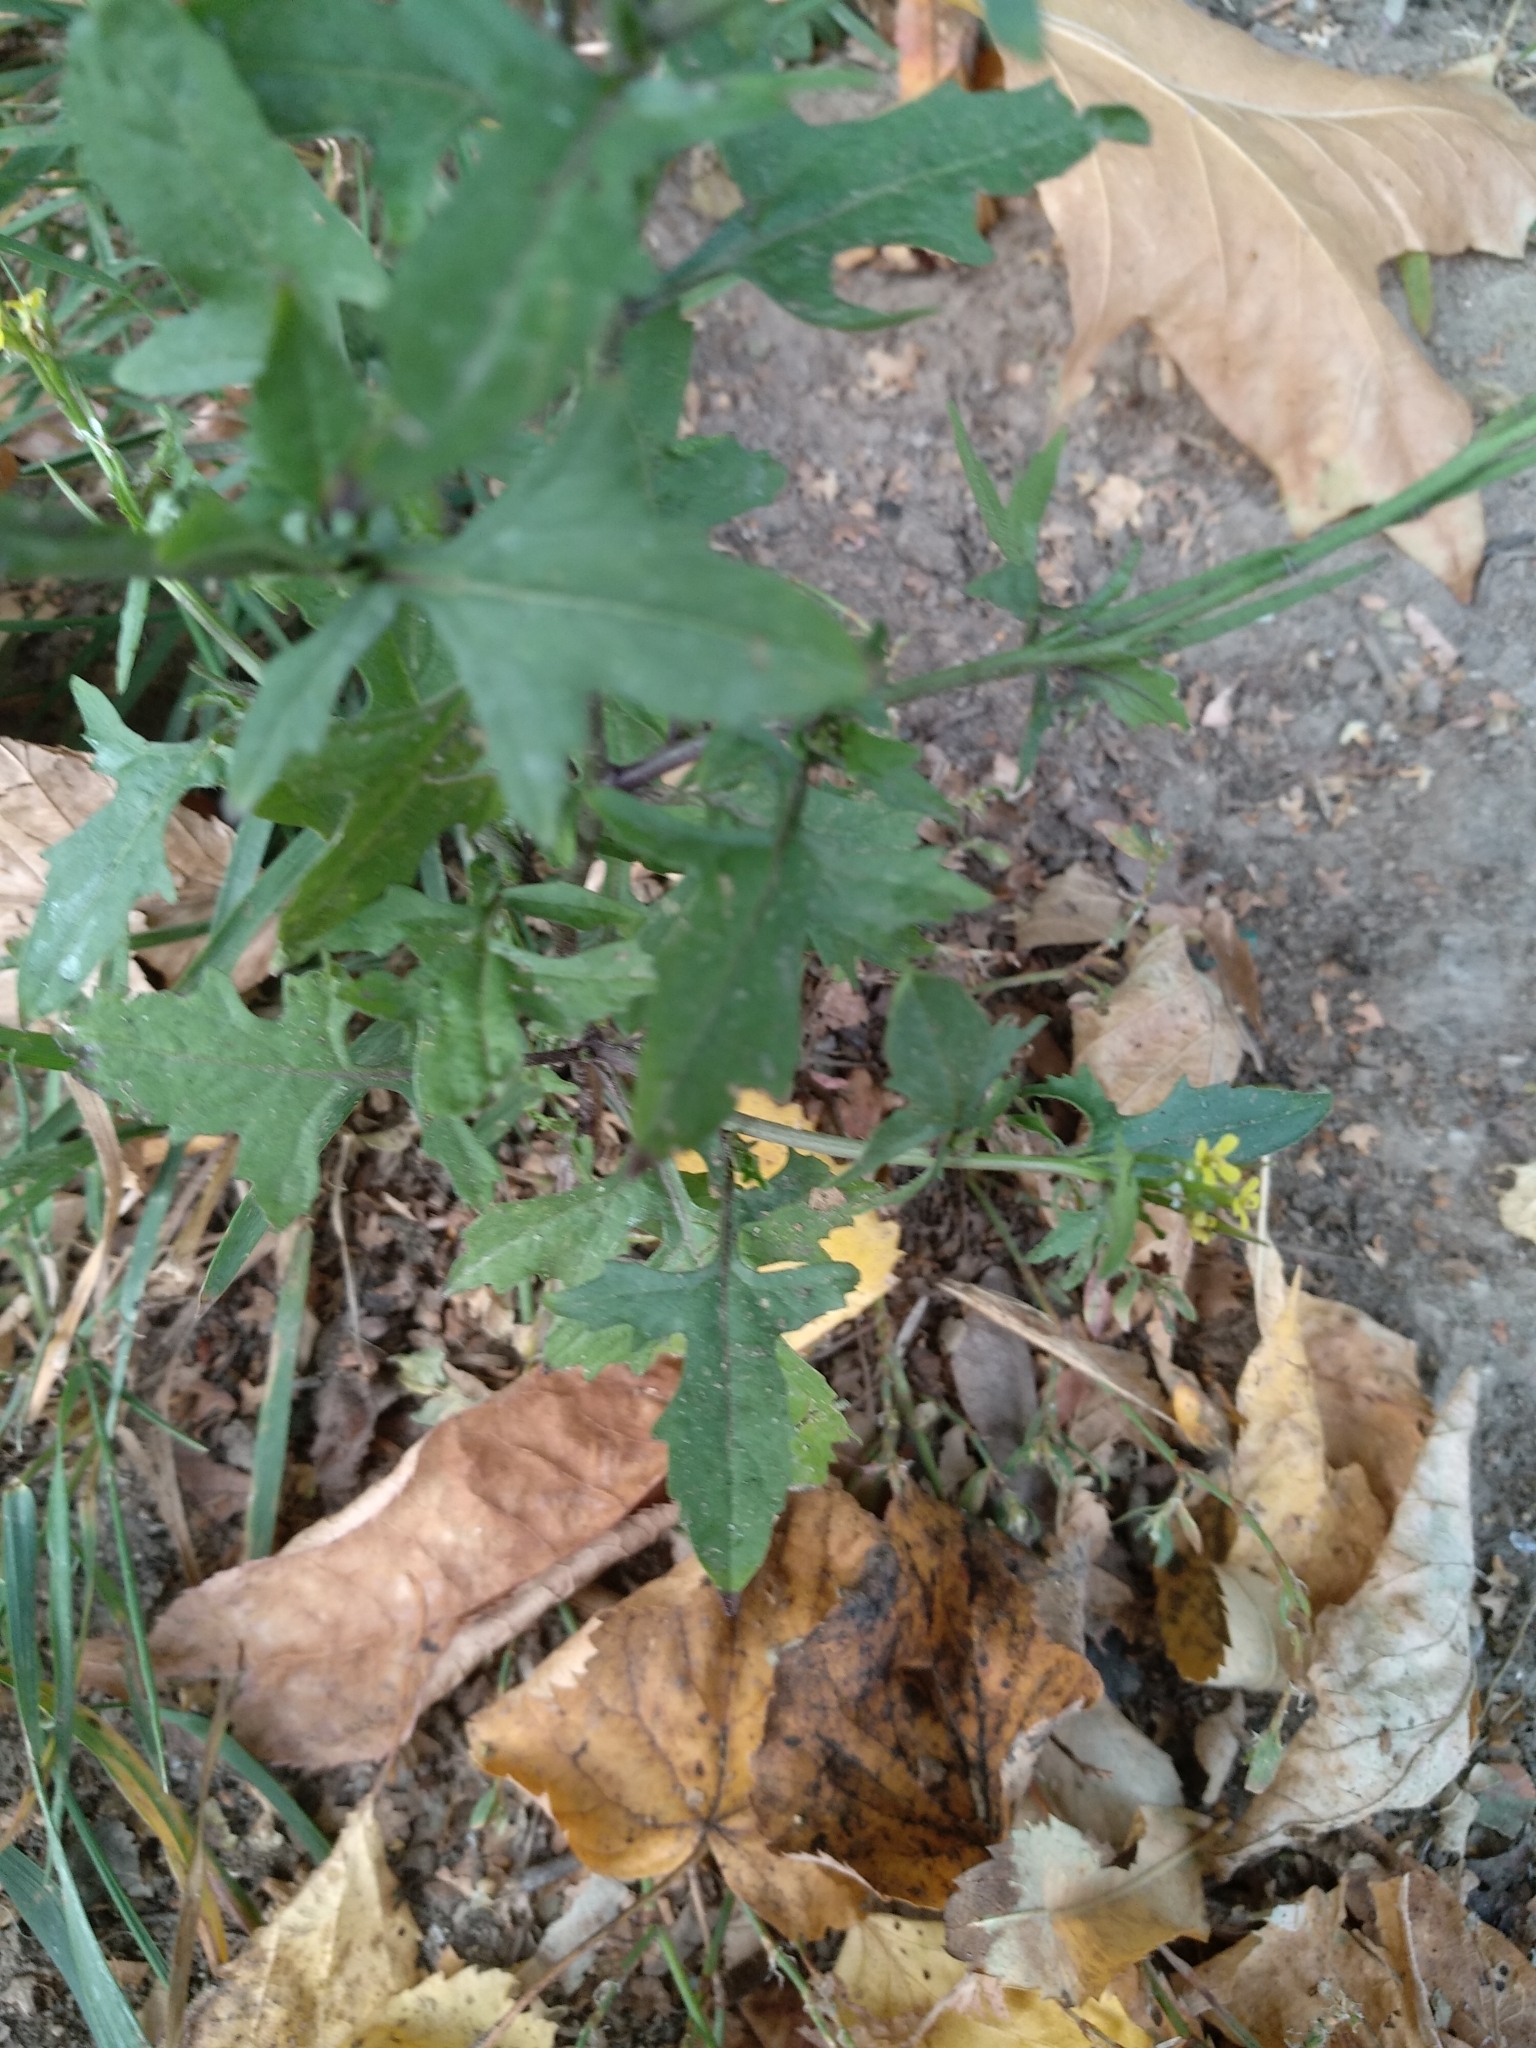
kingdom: Plantae
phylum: Tracheophyta
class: Magnoliopsida
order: Brassicales
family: Brassicaceae
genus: Sisymbrium
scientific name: Sisymbrium officinale
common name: Hedge mustard
